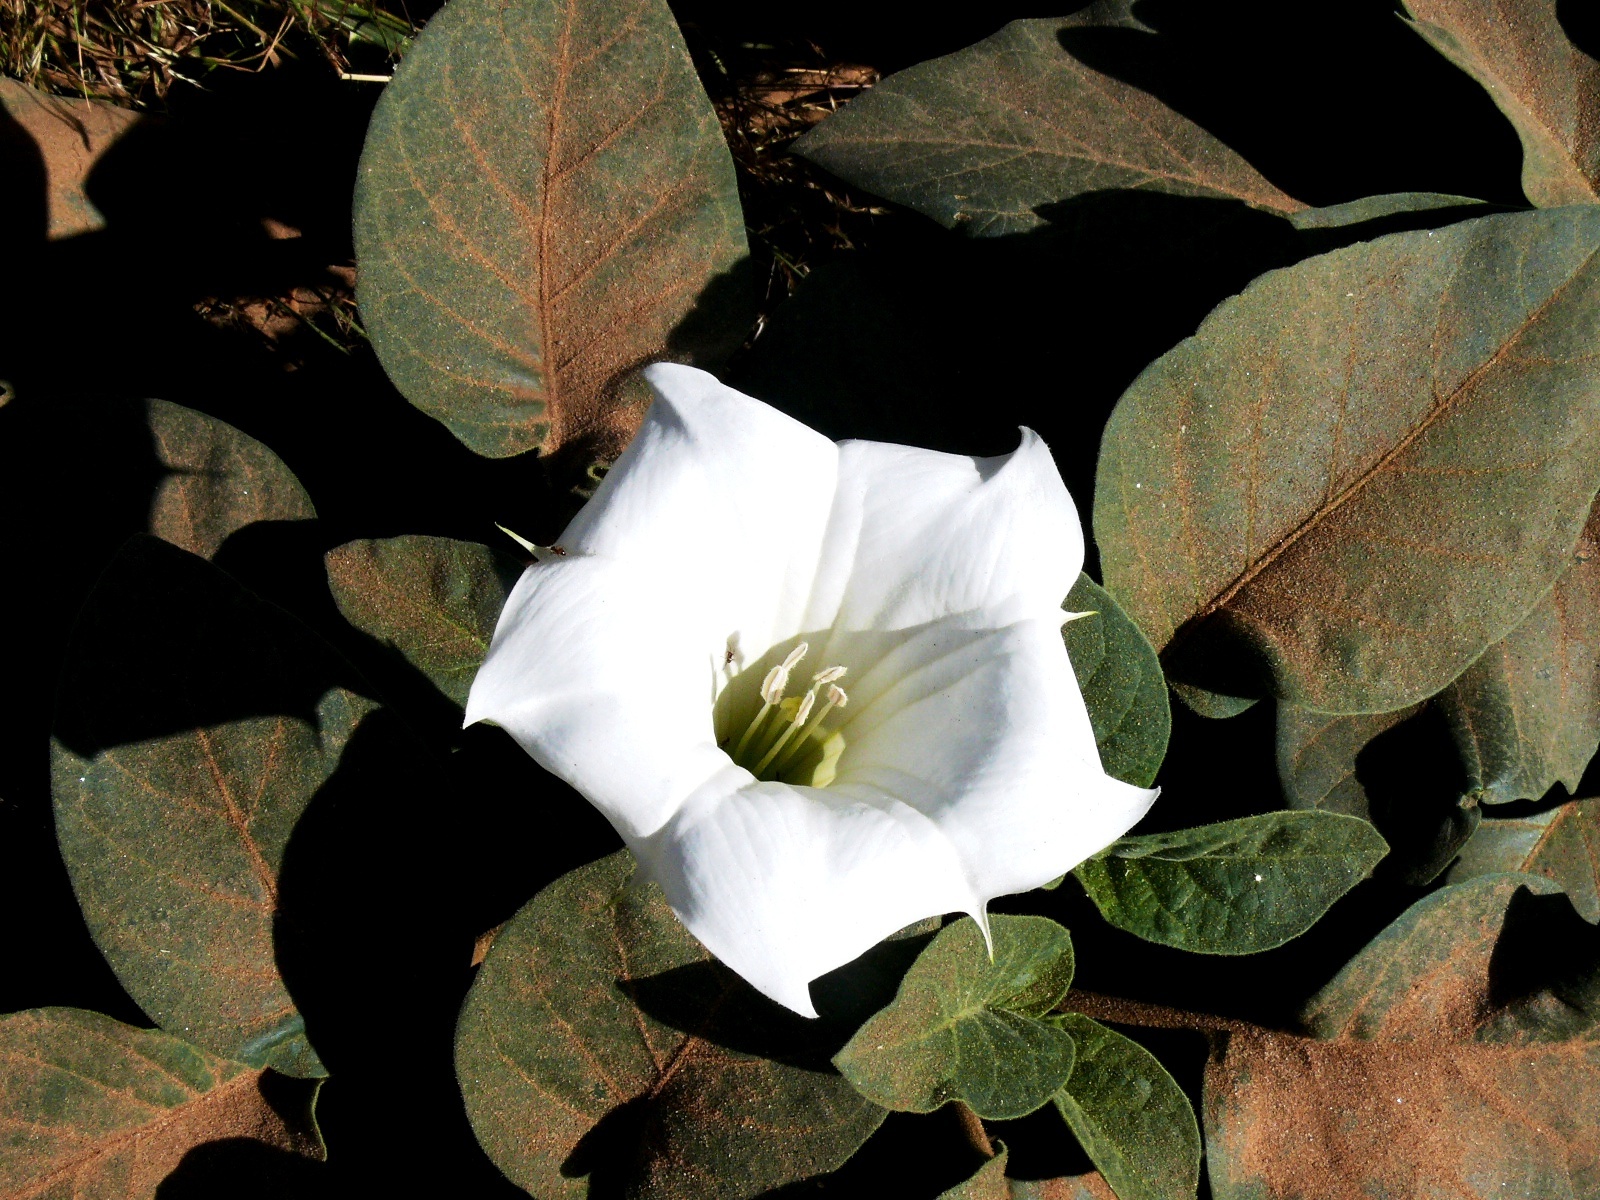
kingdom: Plantae
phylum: Tracheophyta
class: Magnoliopsida
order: Solanales
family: Solanaceae
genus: Datura
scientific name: Datura innoxia
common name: Downy thorn-apple
